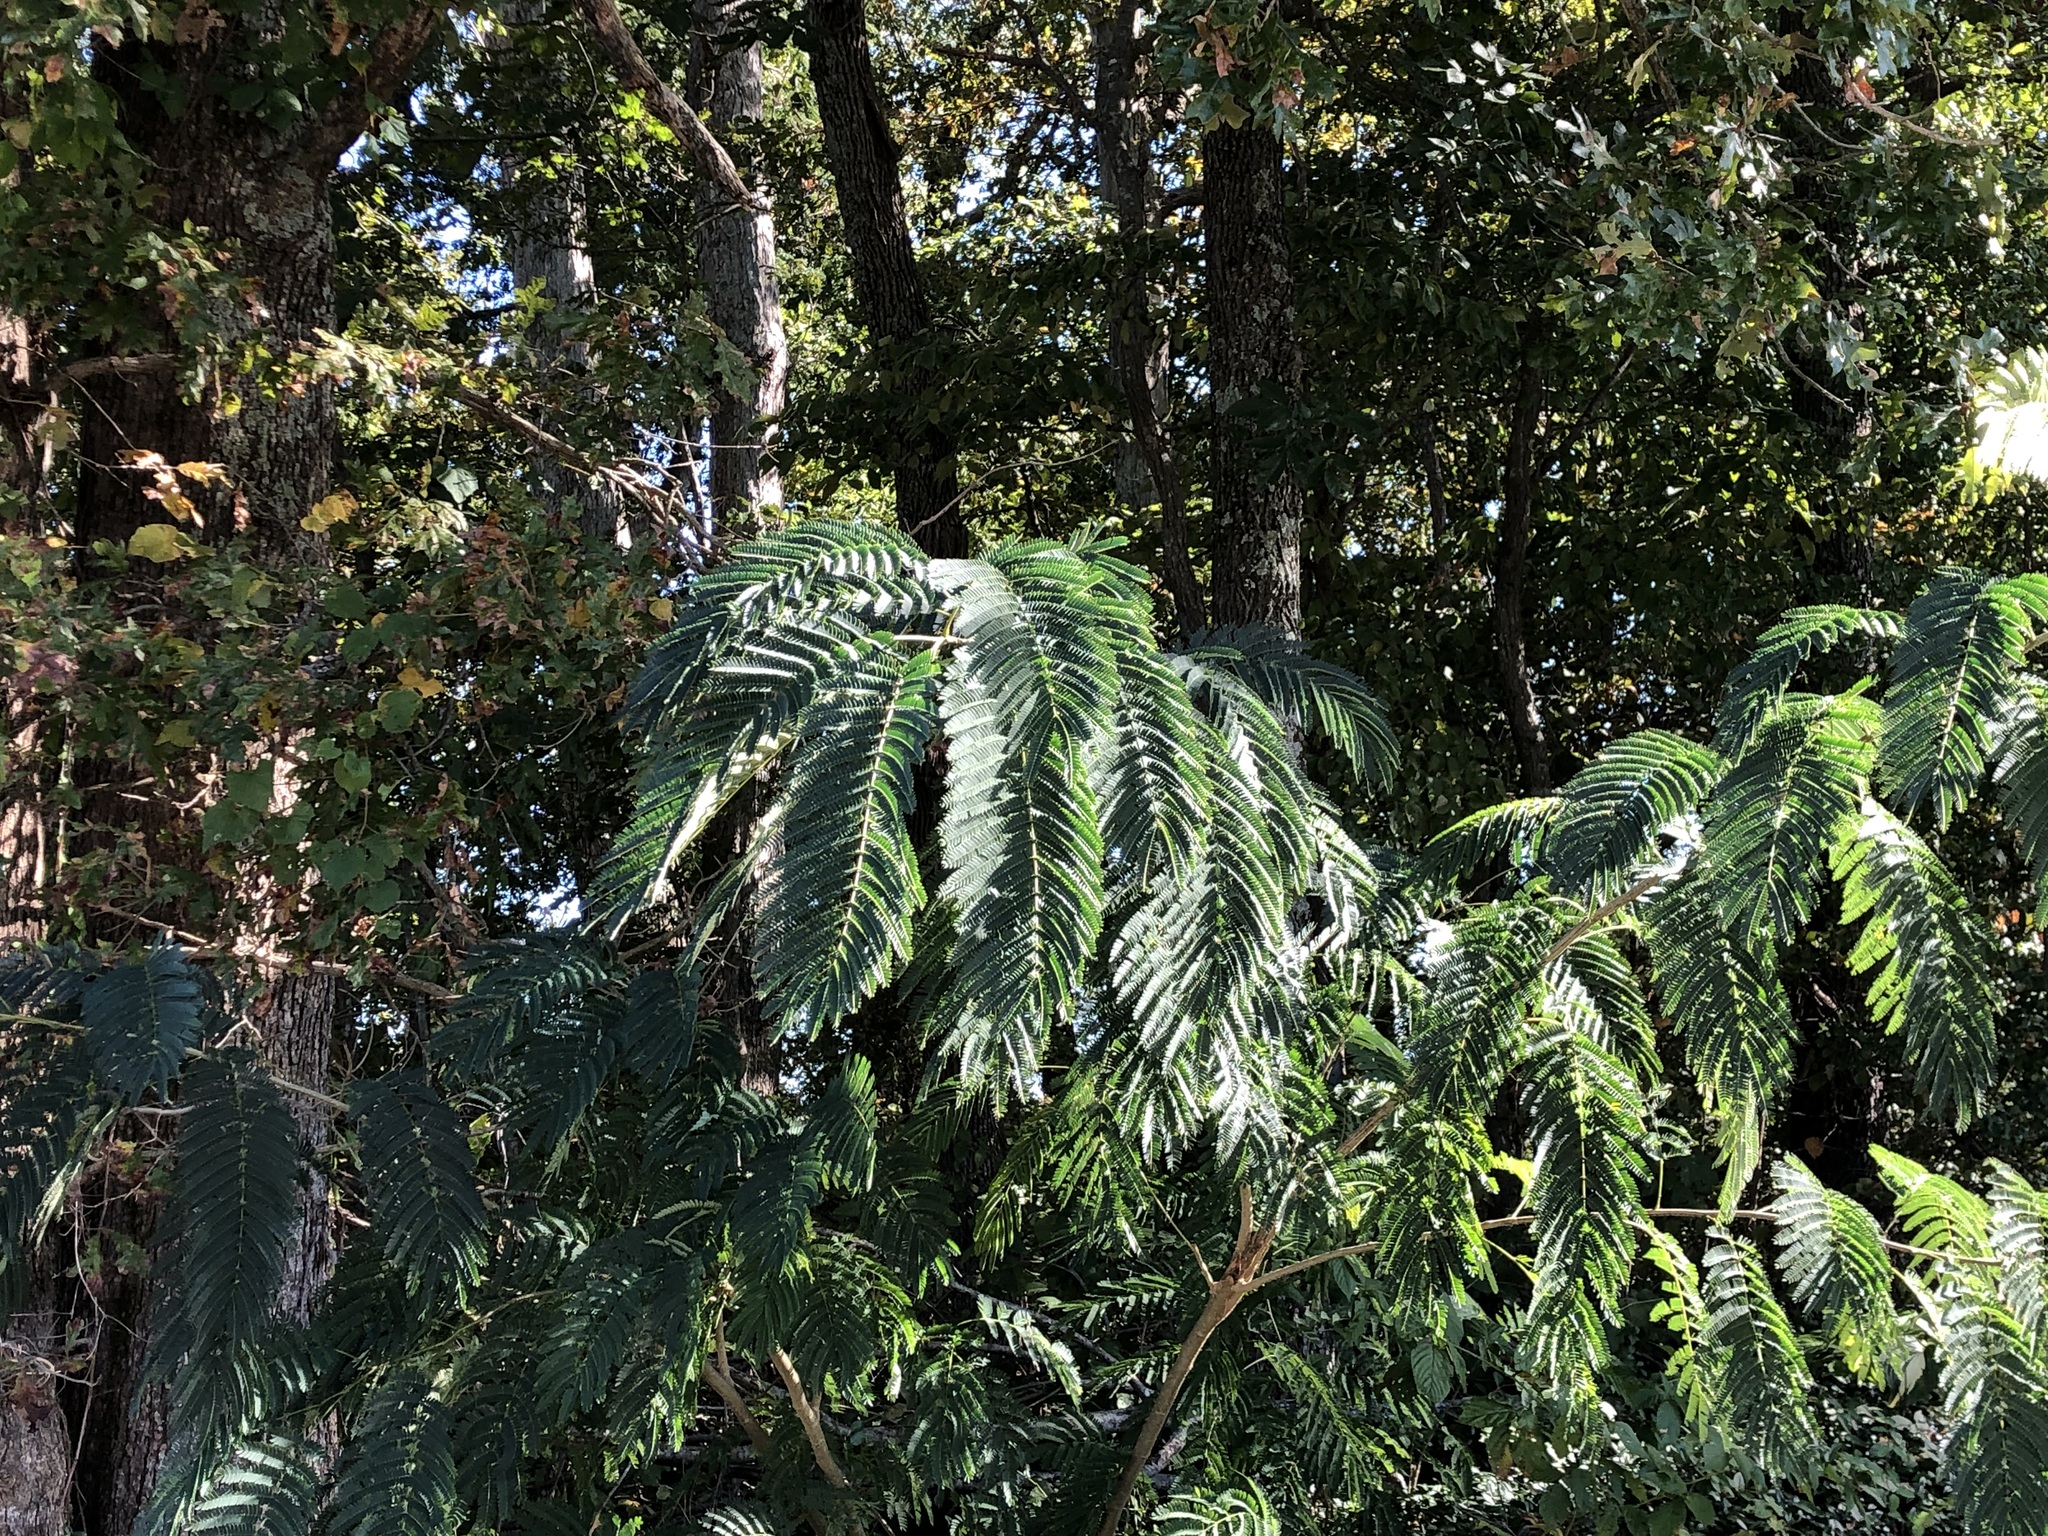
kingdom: Plantae
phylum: Tracheophyta
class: Magnoliopsida
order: Fabales
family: Fabaceae
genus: Albizia
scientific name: Albizia julibrissin
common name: Silktree
